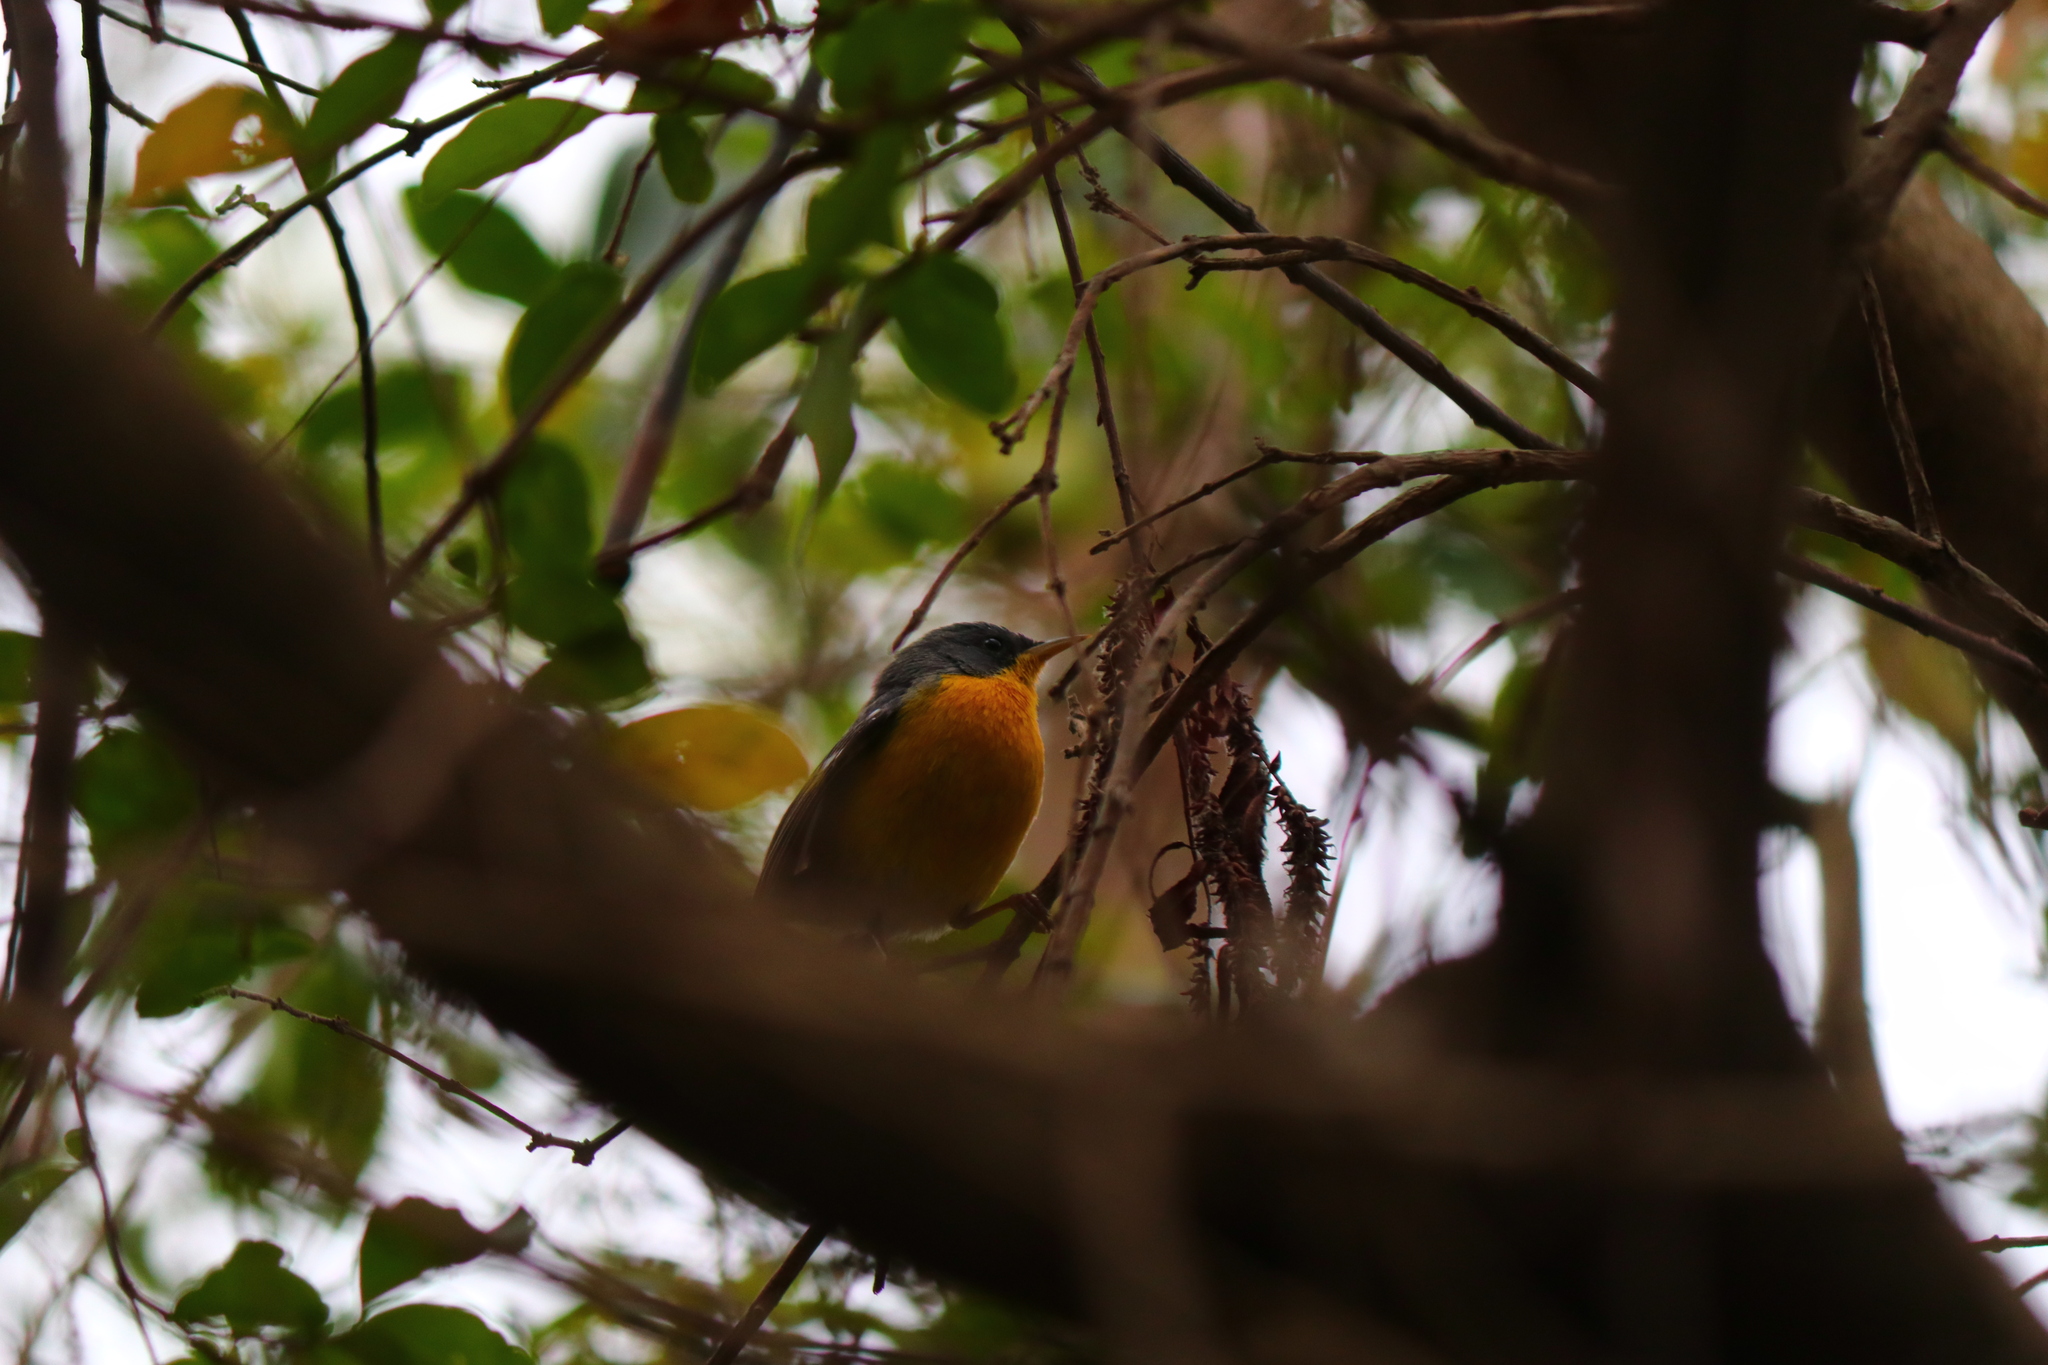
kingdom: Animalia
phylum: Chordata
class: Aves
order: Passeriformes
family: Parulidae
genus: Setophaga
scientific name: Setophaga pitiayumi
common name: Tropical parula
